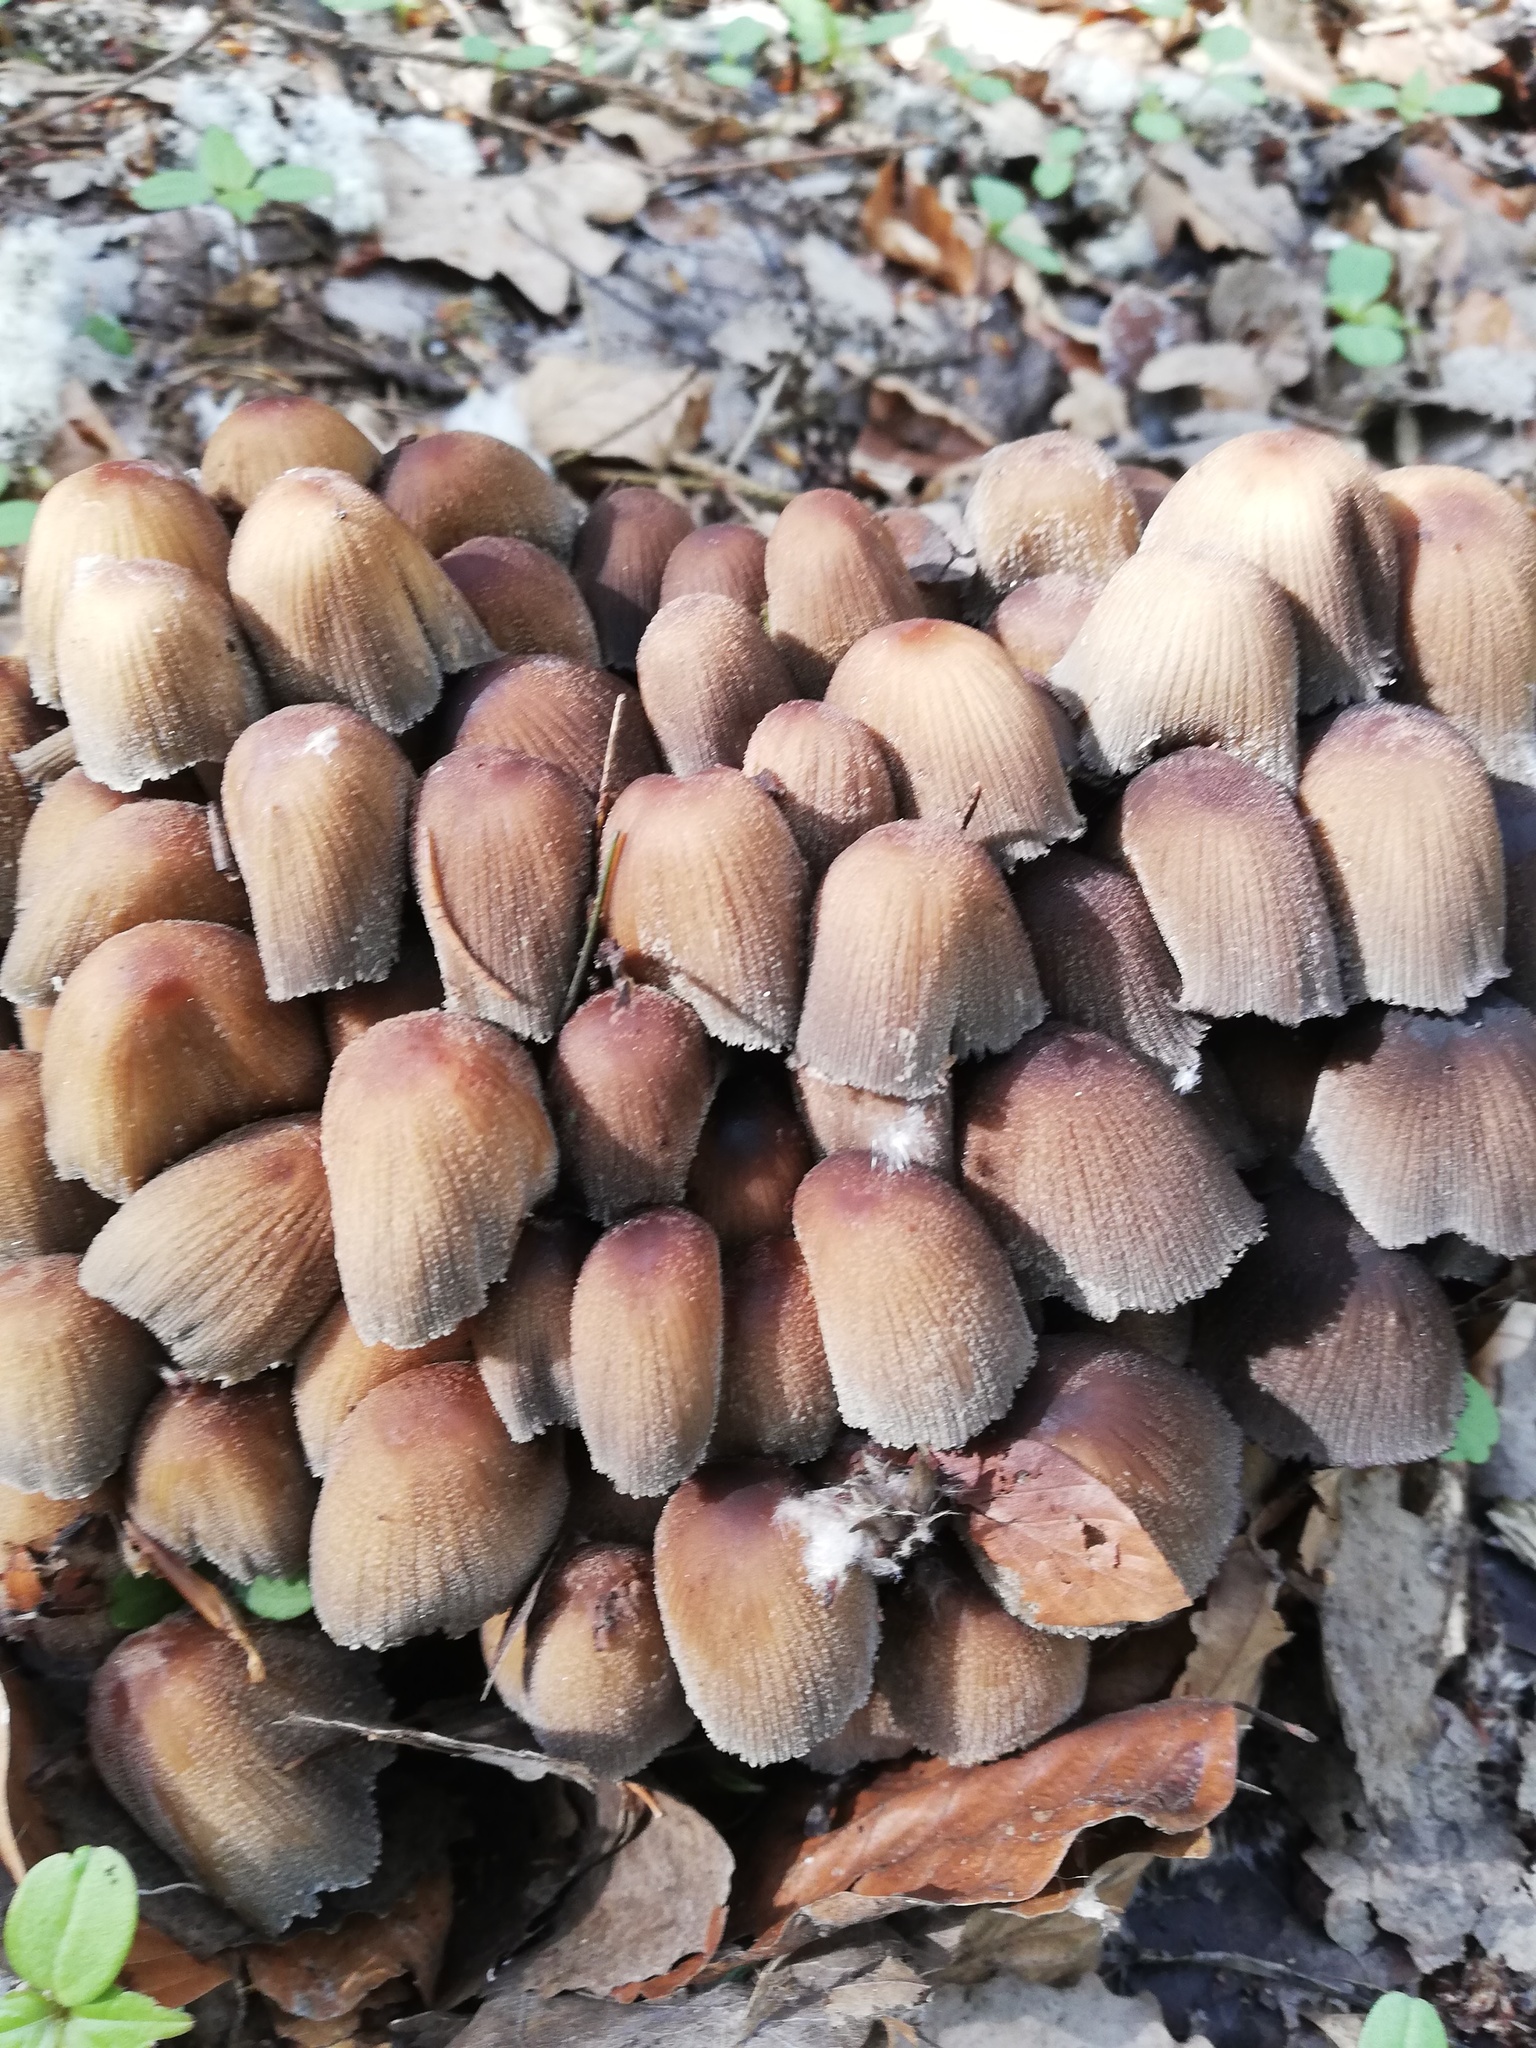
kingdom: Fungi
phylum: Basidiomycota
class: Agaricomycetes
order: Agaricales
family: Psathyrellaceae
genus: Coprinellus
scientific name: Coprinellus micaceus
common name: Glistening ink-cap
